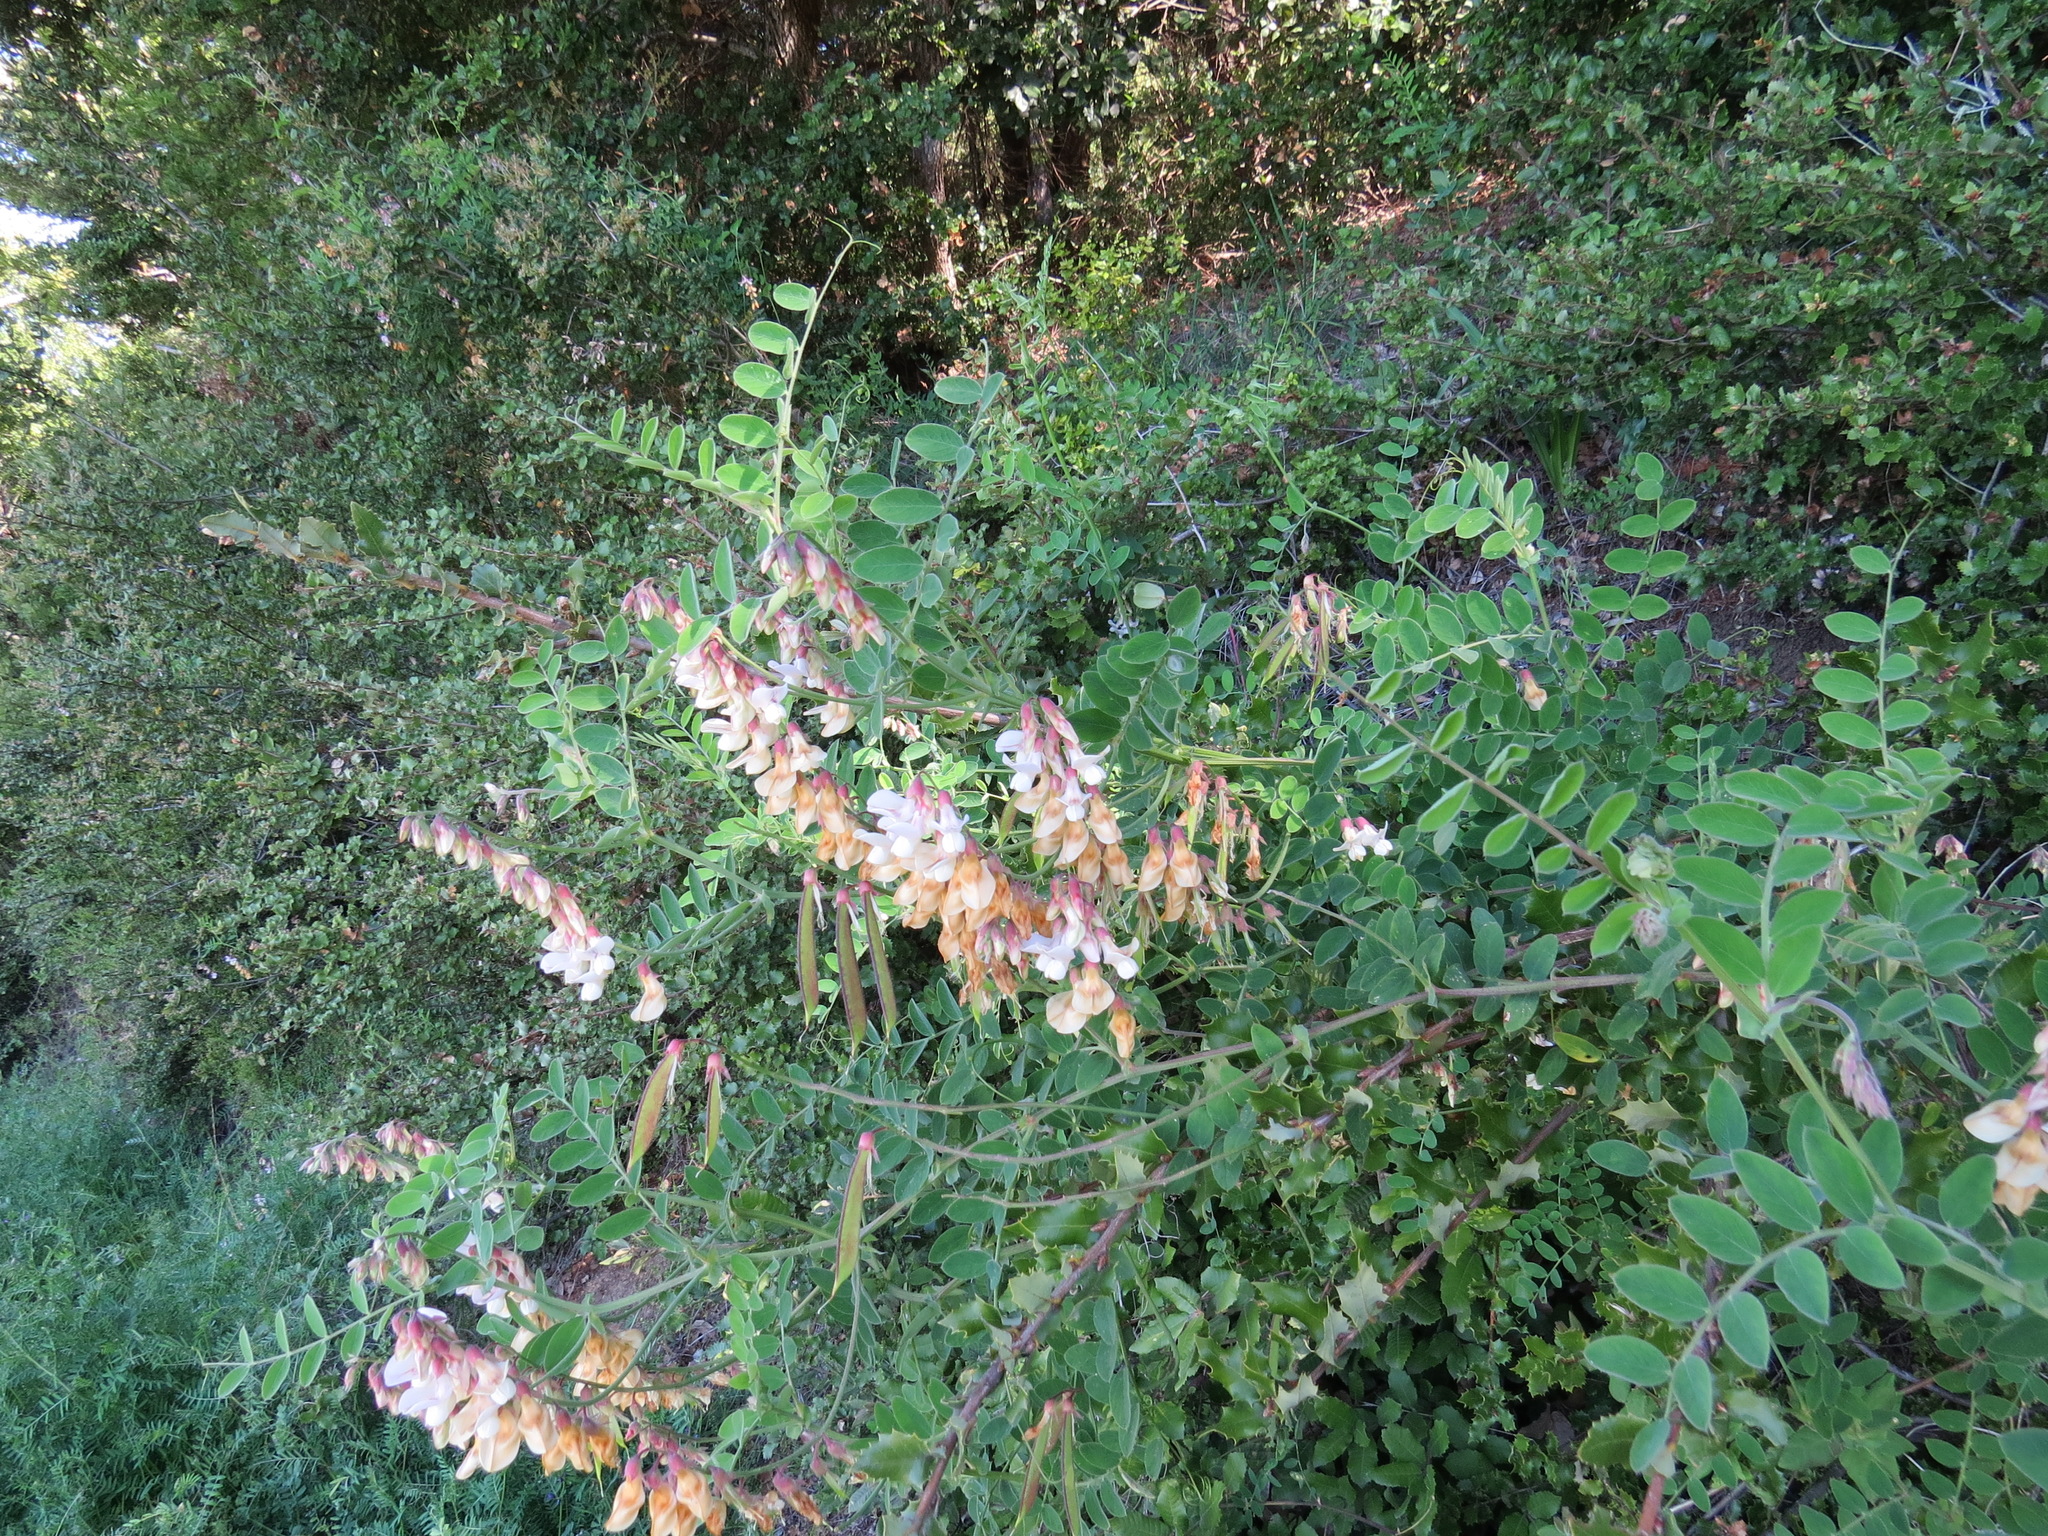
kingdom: Plantae
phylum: Tracheophyta
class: Magnoliopsida
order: Fabales
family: Fabaceae
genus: Lathyrus
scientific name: Lathyrus vestitus
